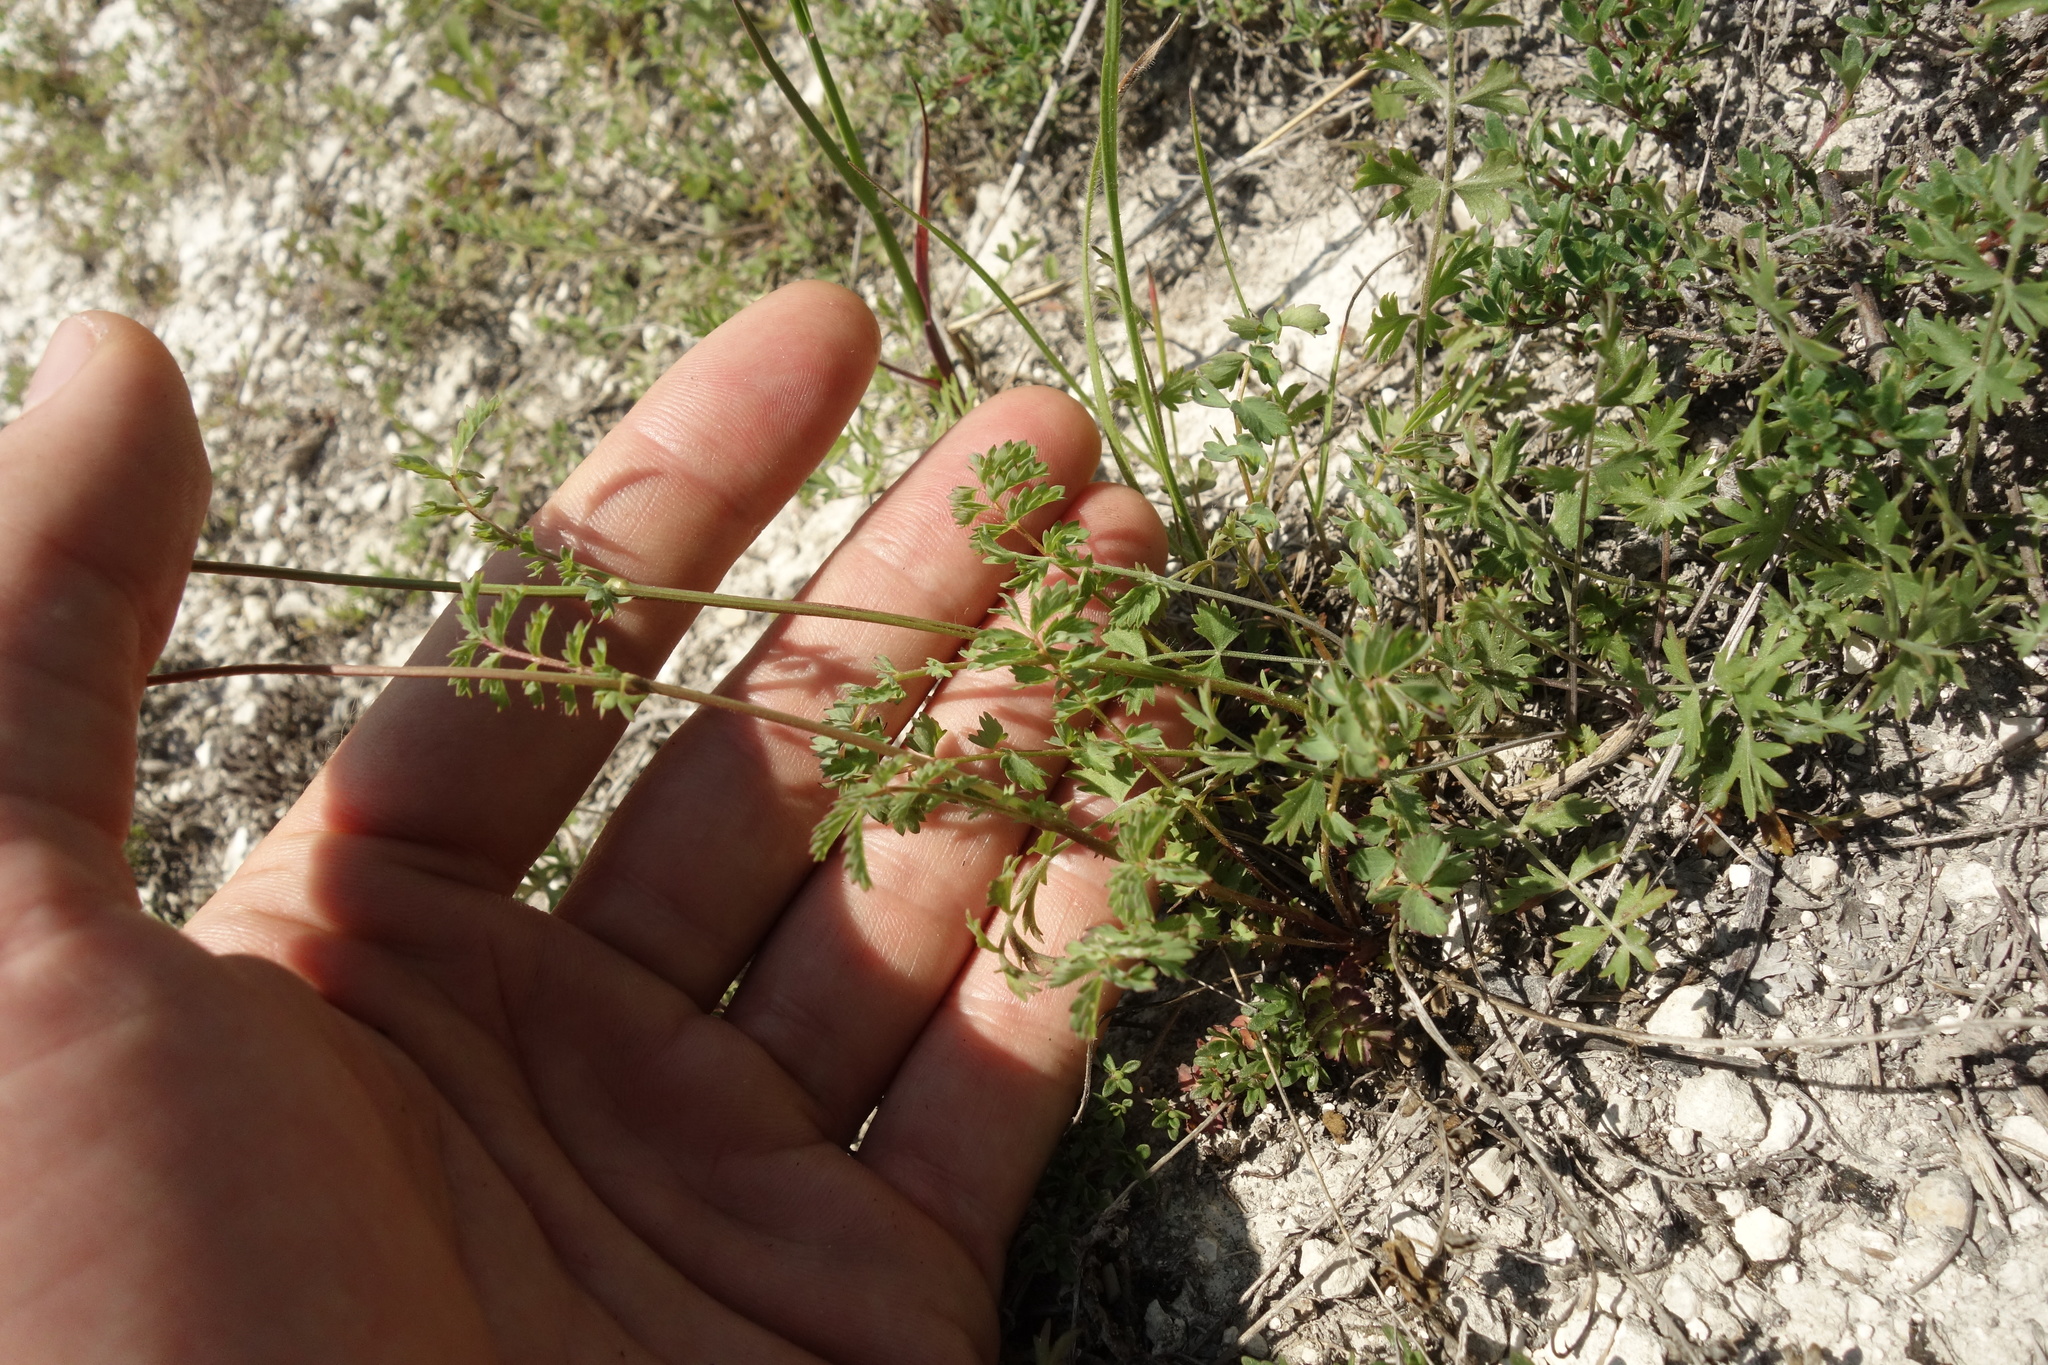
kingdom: Plantae
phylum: Tracheophyta
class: Magnoliopsida
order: Rosales
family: Rosaceae
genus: Poterium
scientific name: Poterium sanguisorba
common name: Salad burnet
